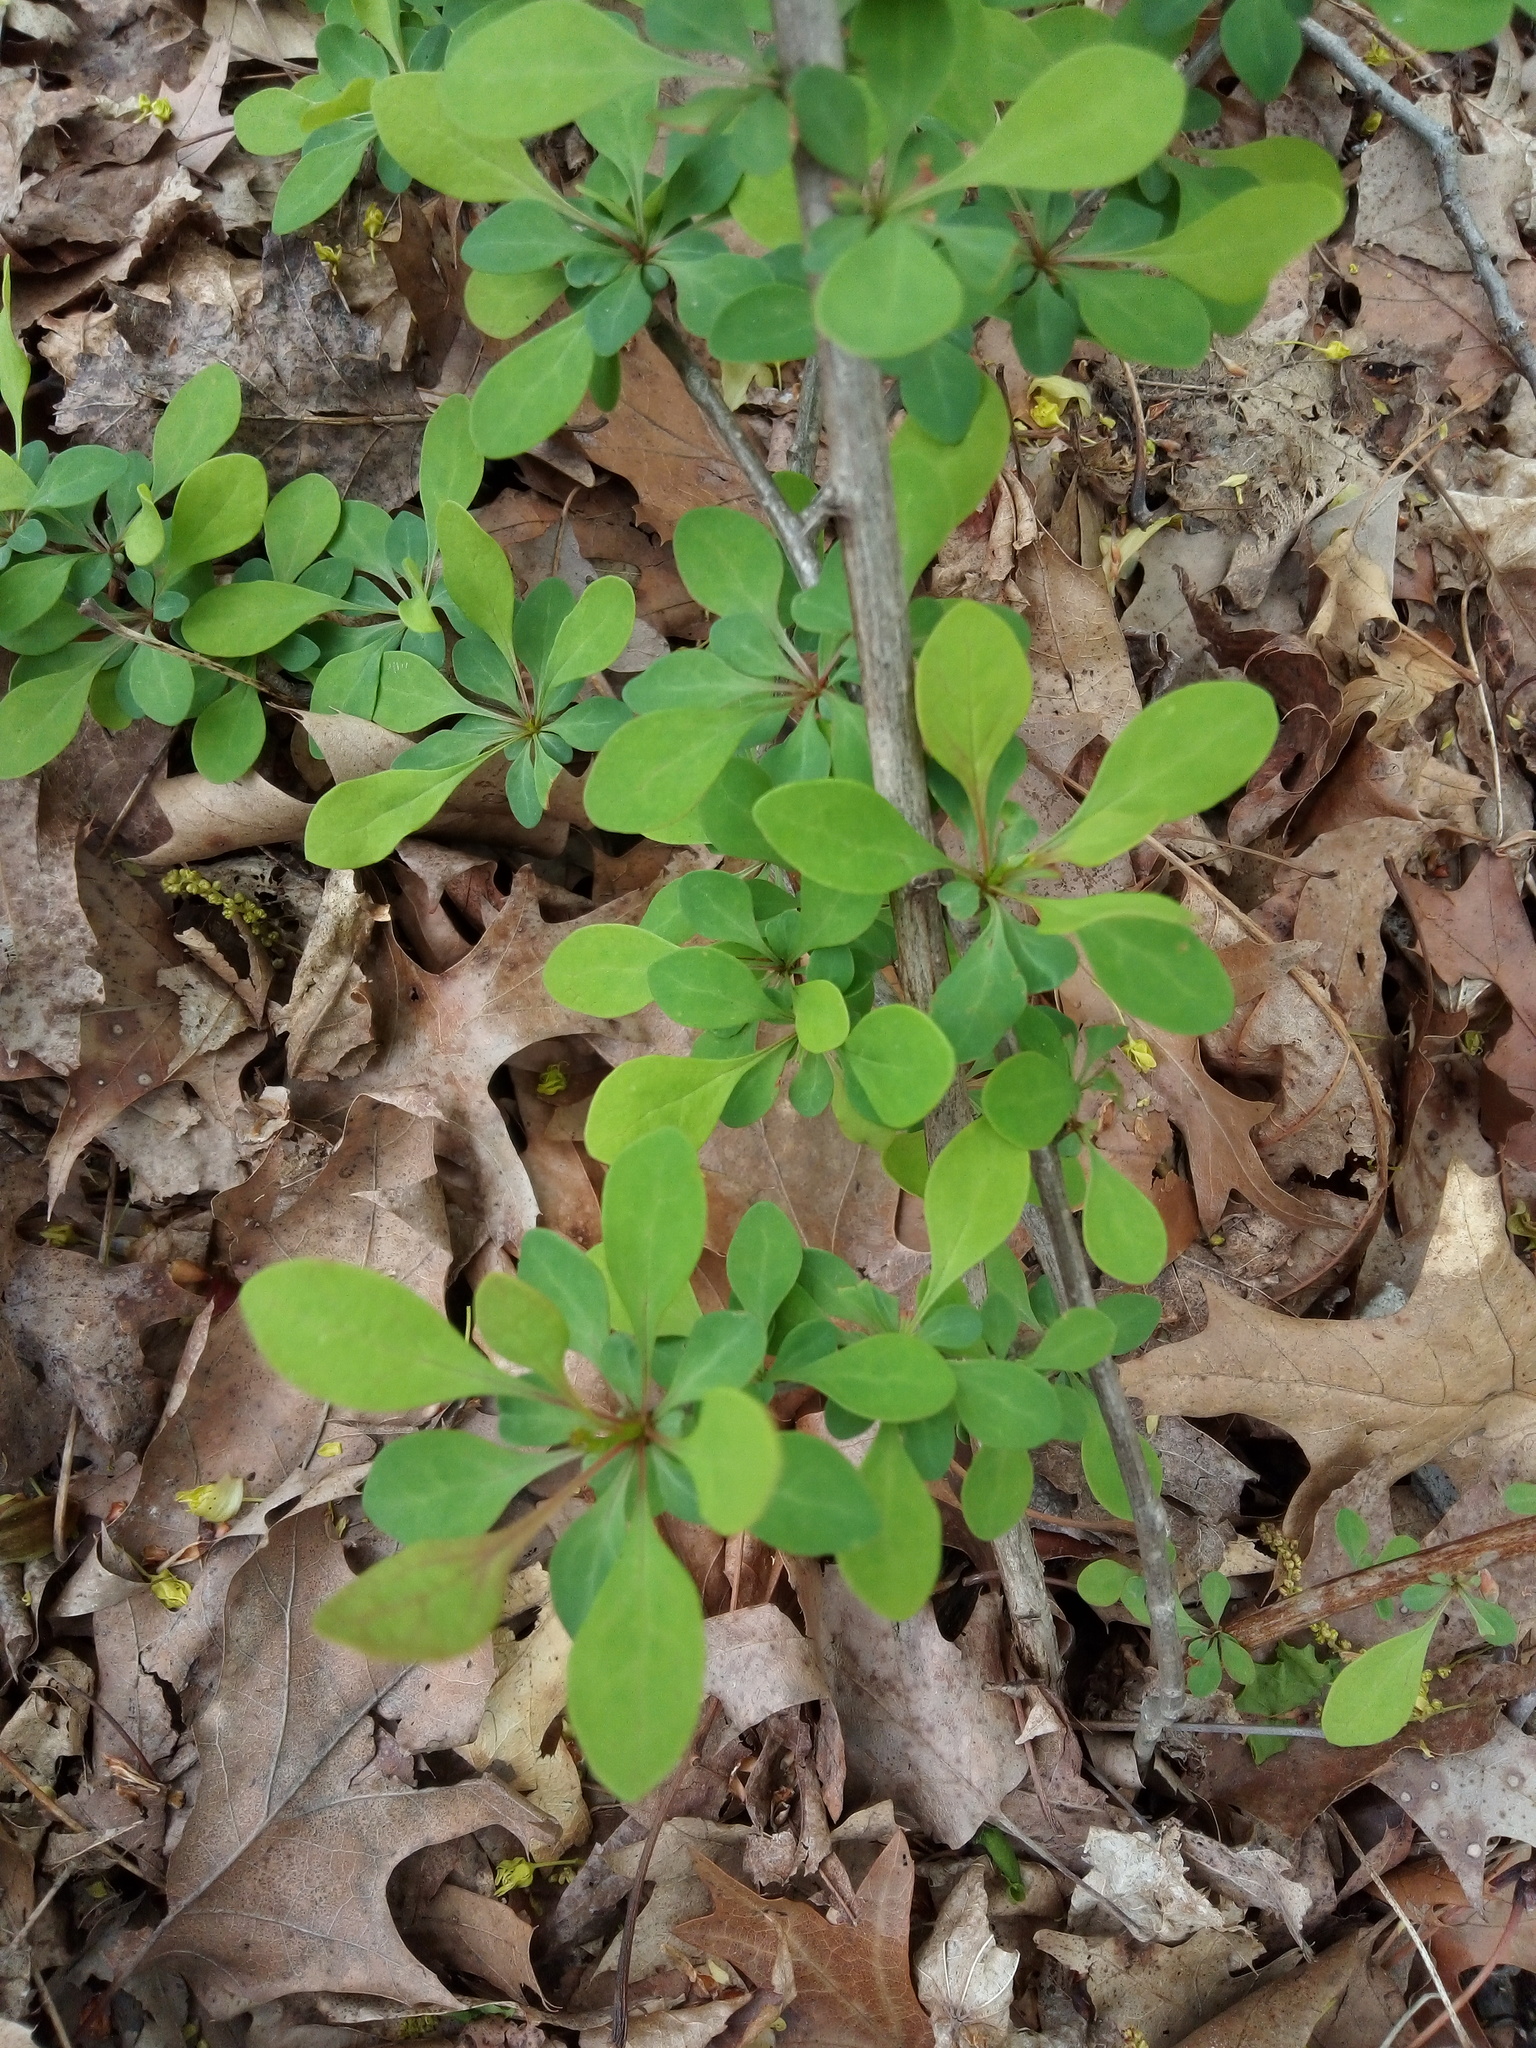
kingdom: Plantae
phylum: Tracheophyta
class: Magnoliopsida
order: Ranunculales
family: Berberidaceae
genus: Berberis
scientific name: Berberis thunbergii
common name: Japanese barberry
